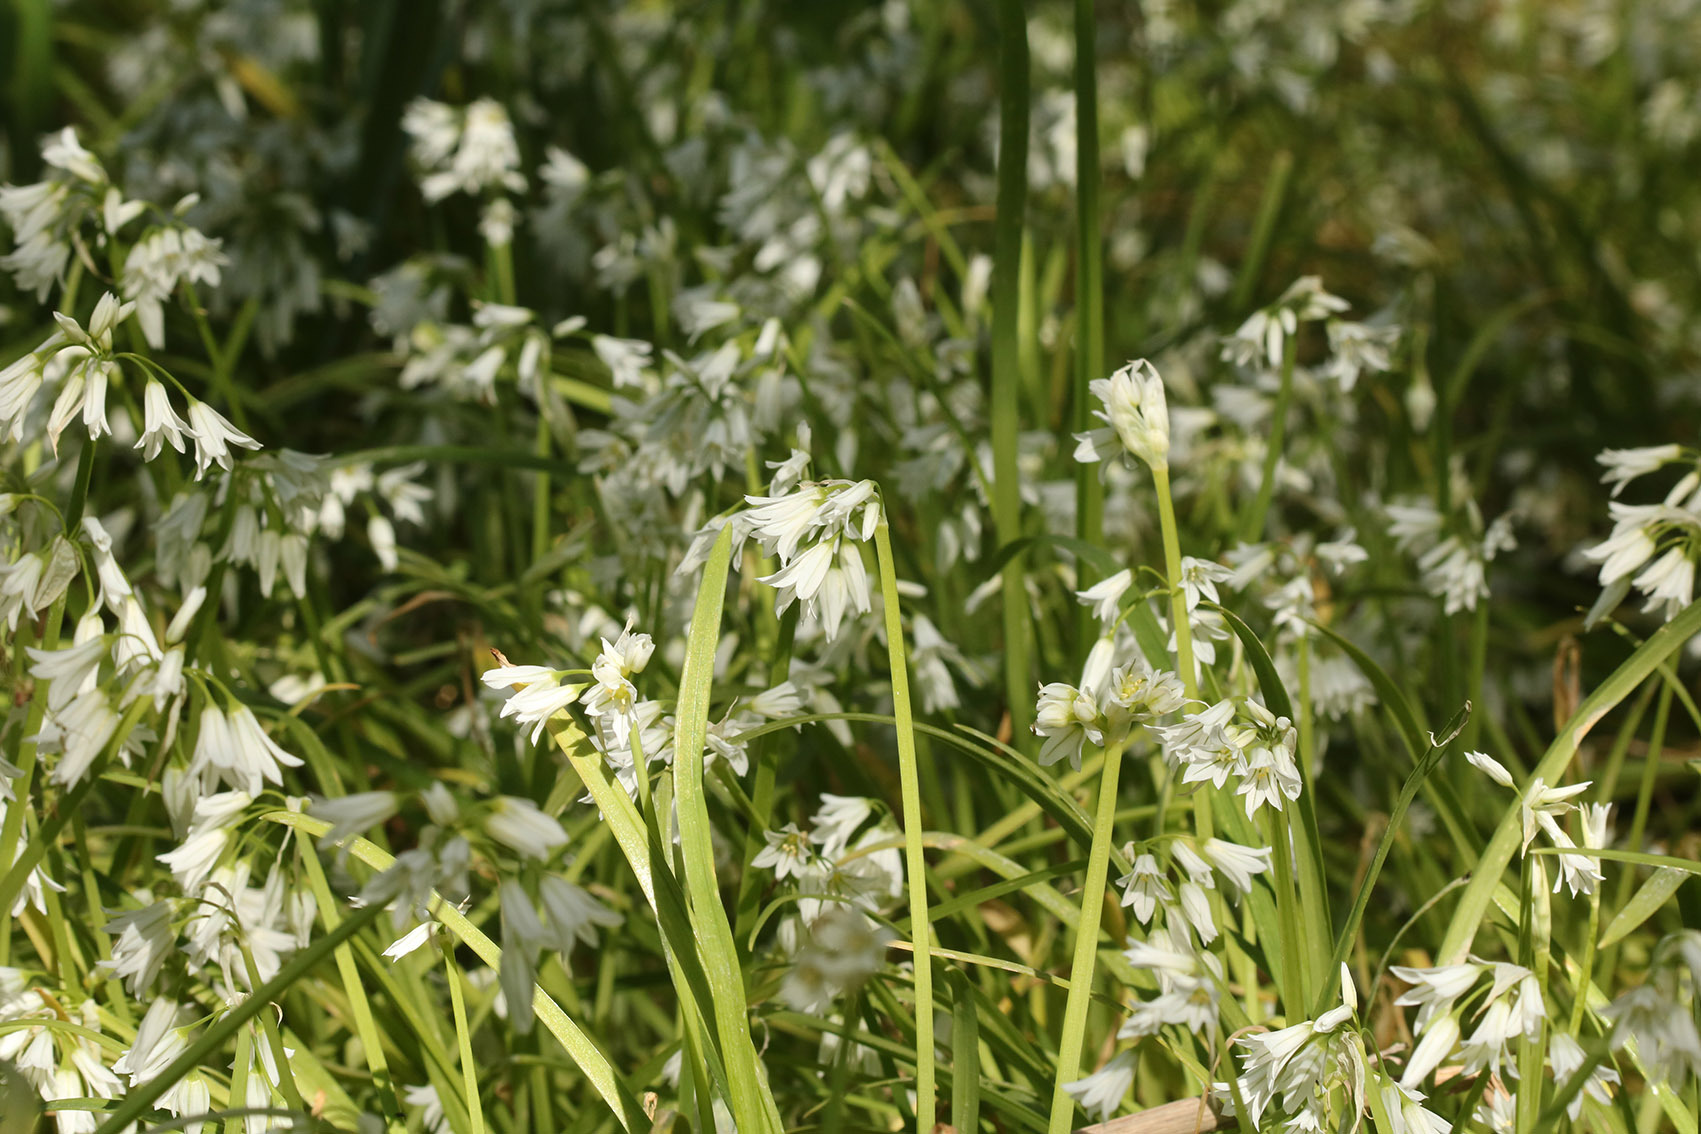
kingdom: Plantae
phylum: Tracheophyta
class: Liliopsida
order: Asparagales
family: Amaryllidaceae
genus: Allium
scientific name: Allium triquetrum
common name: Three-cornered garlic
